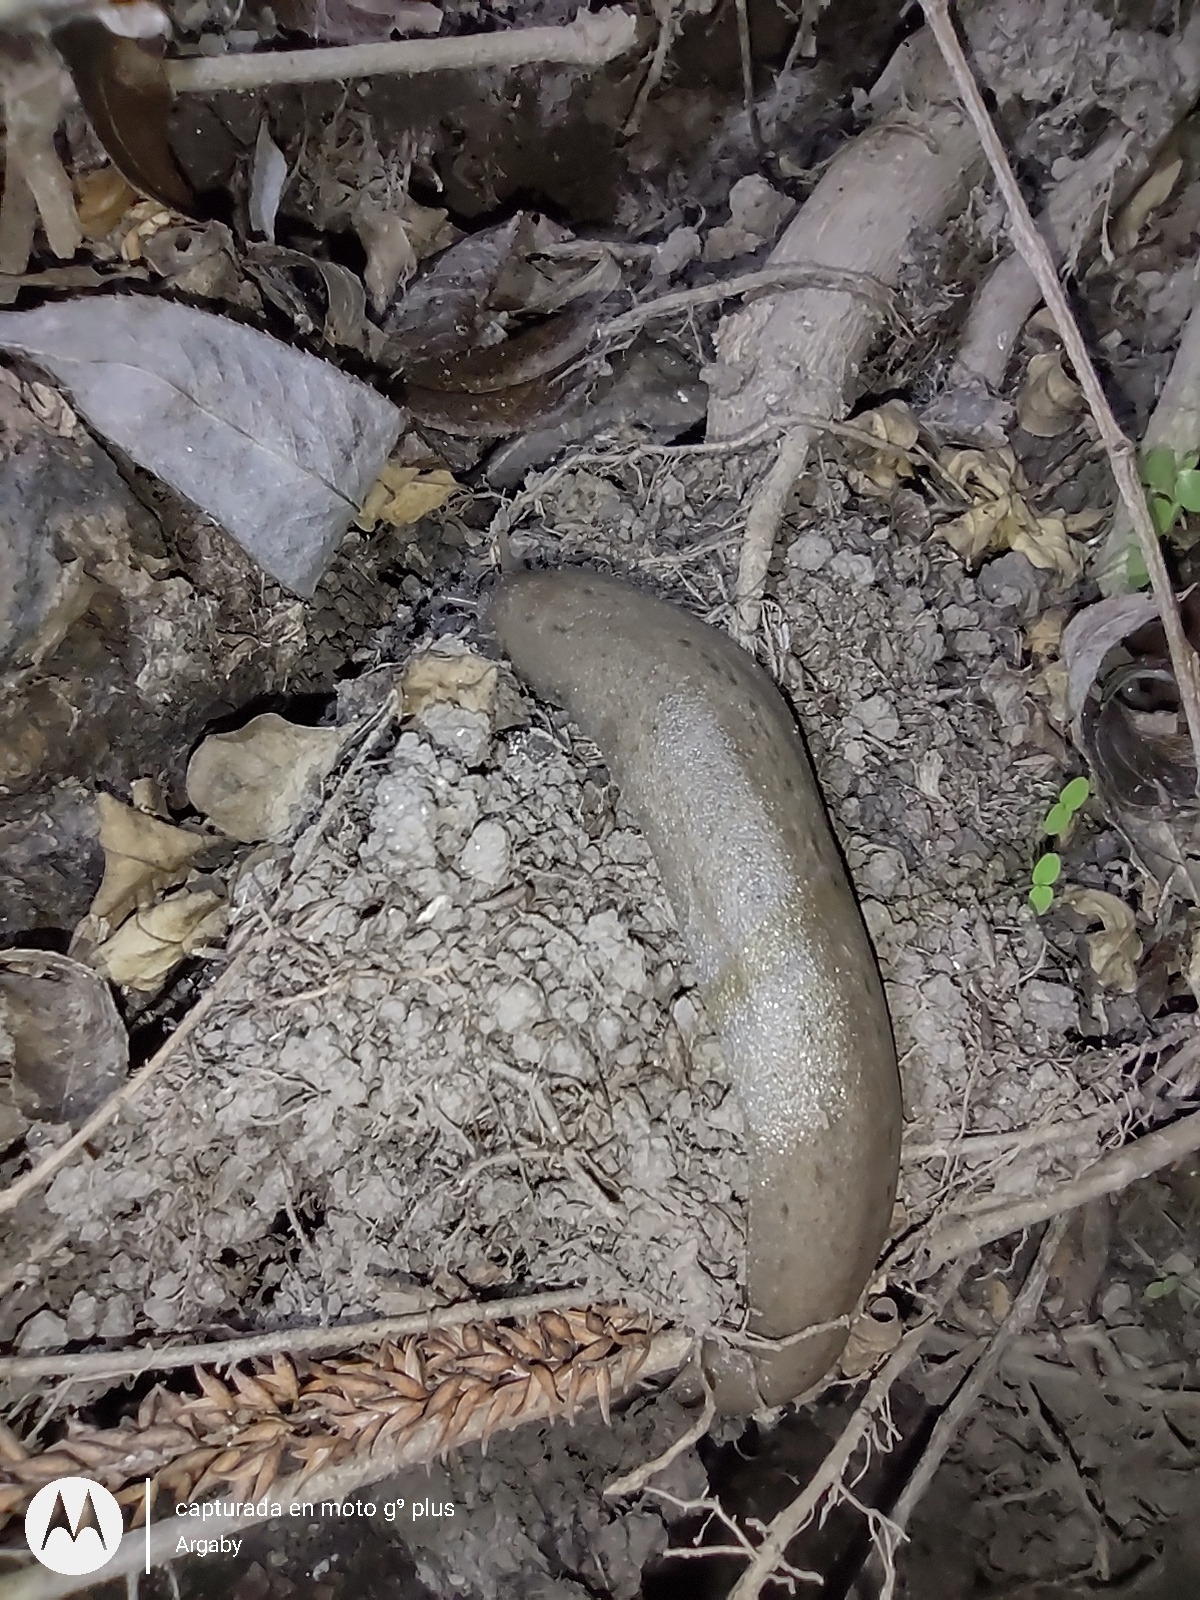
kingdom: Animalia
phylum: Mollusca
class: Gastropoda
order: Systellommatophora
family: Veronicellidae
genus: Phyllocaulis
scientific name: Phyllocaulis variegatus
